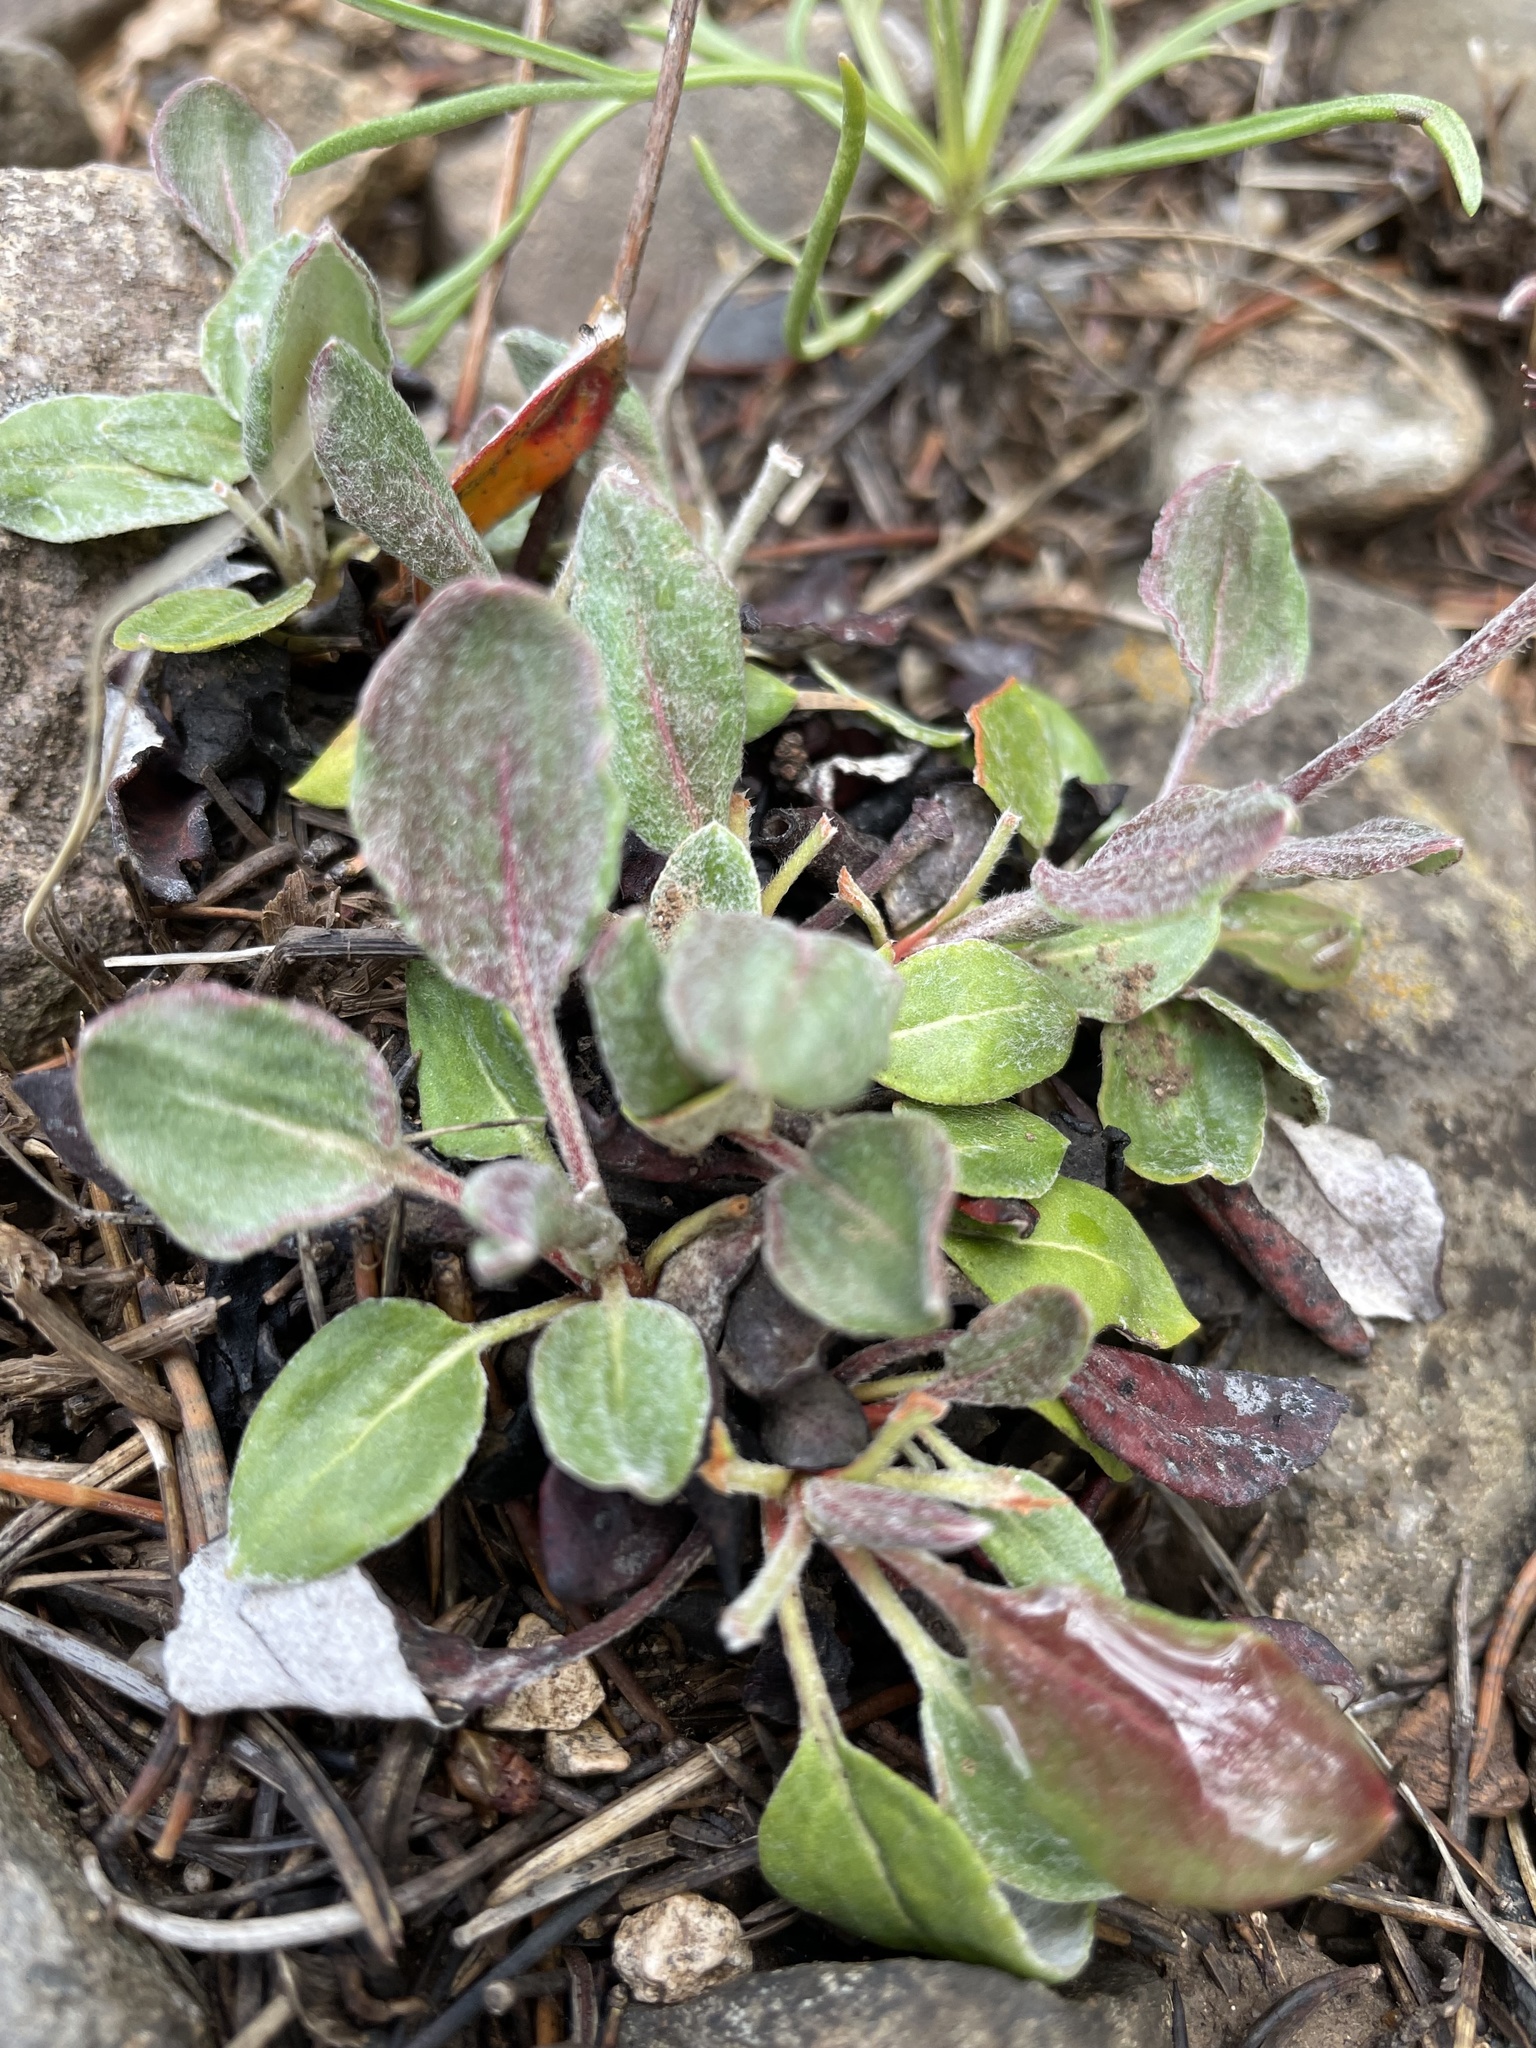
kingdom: Plantae
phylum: Tracheophyta
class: Magnoliopsida
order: Caryophyllales
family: Polygonaceae
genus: Eriogonum
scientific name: Eriogonum jamesii
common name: Antelope-sage
